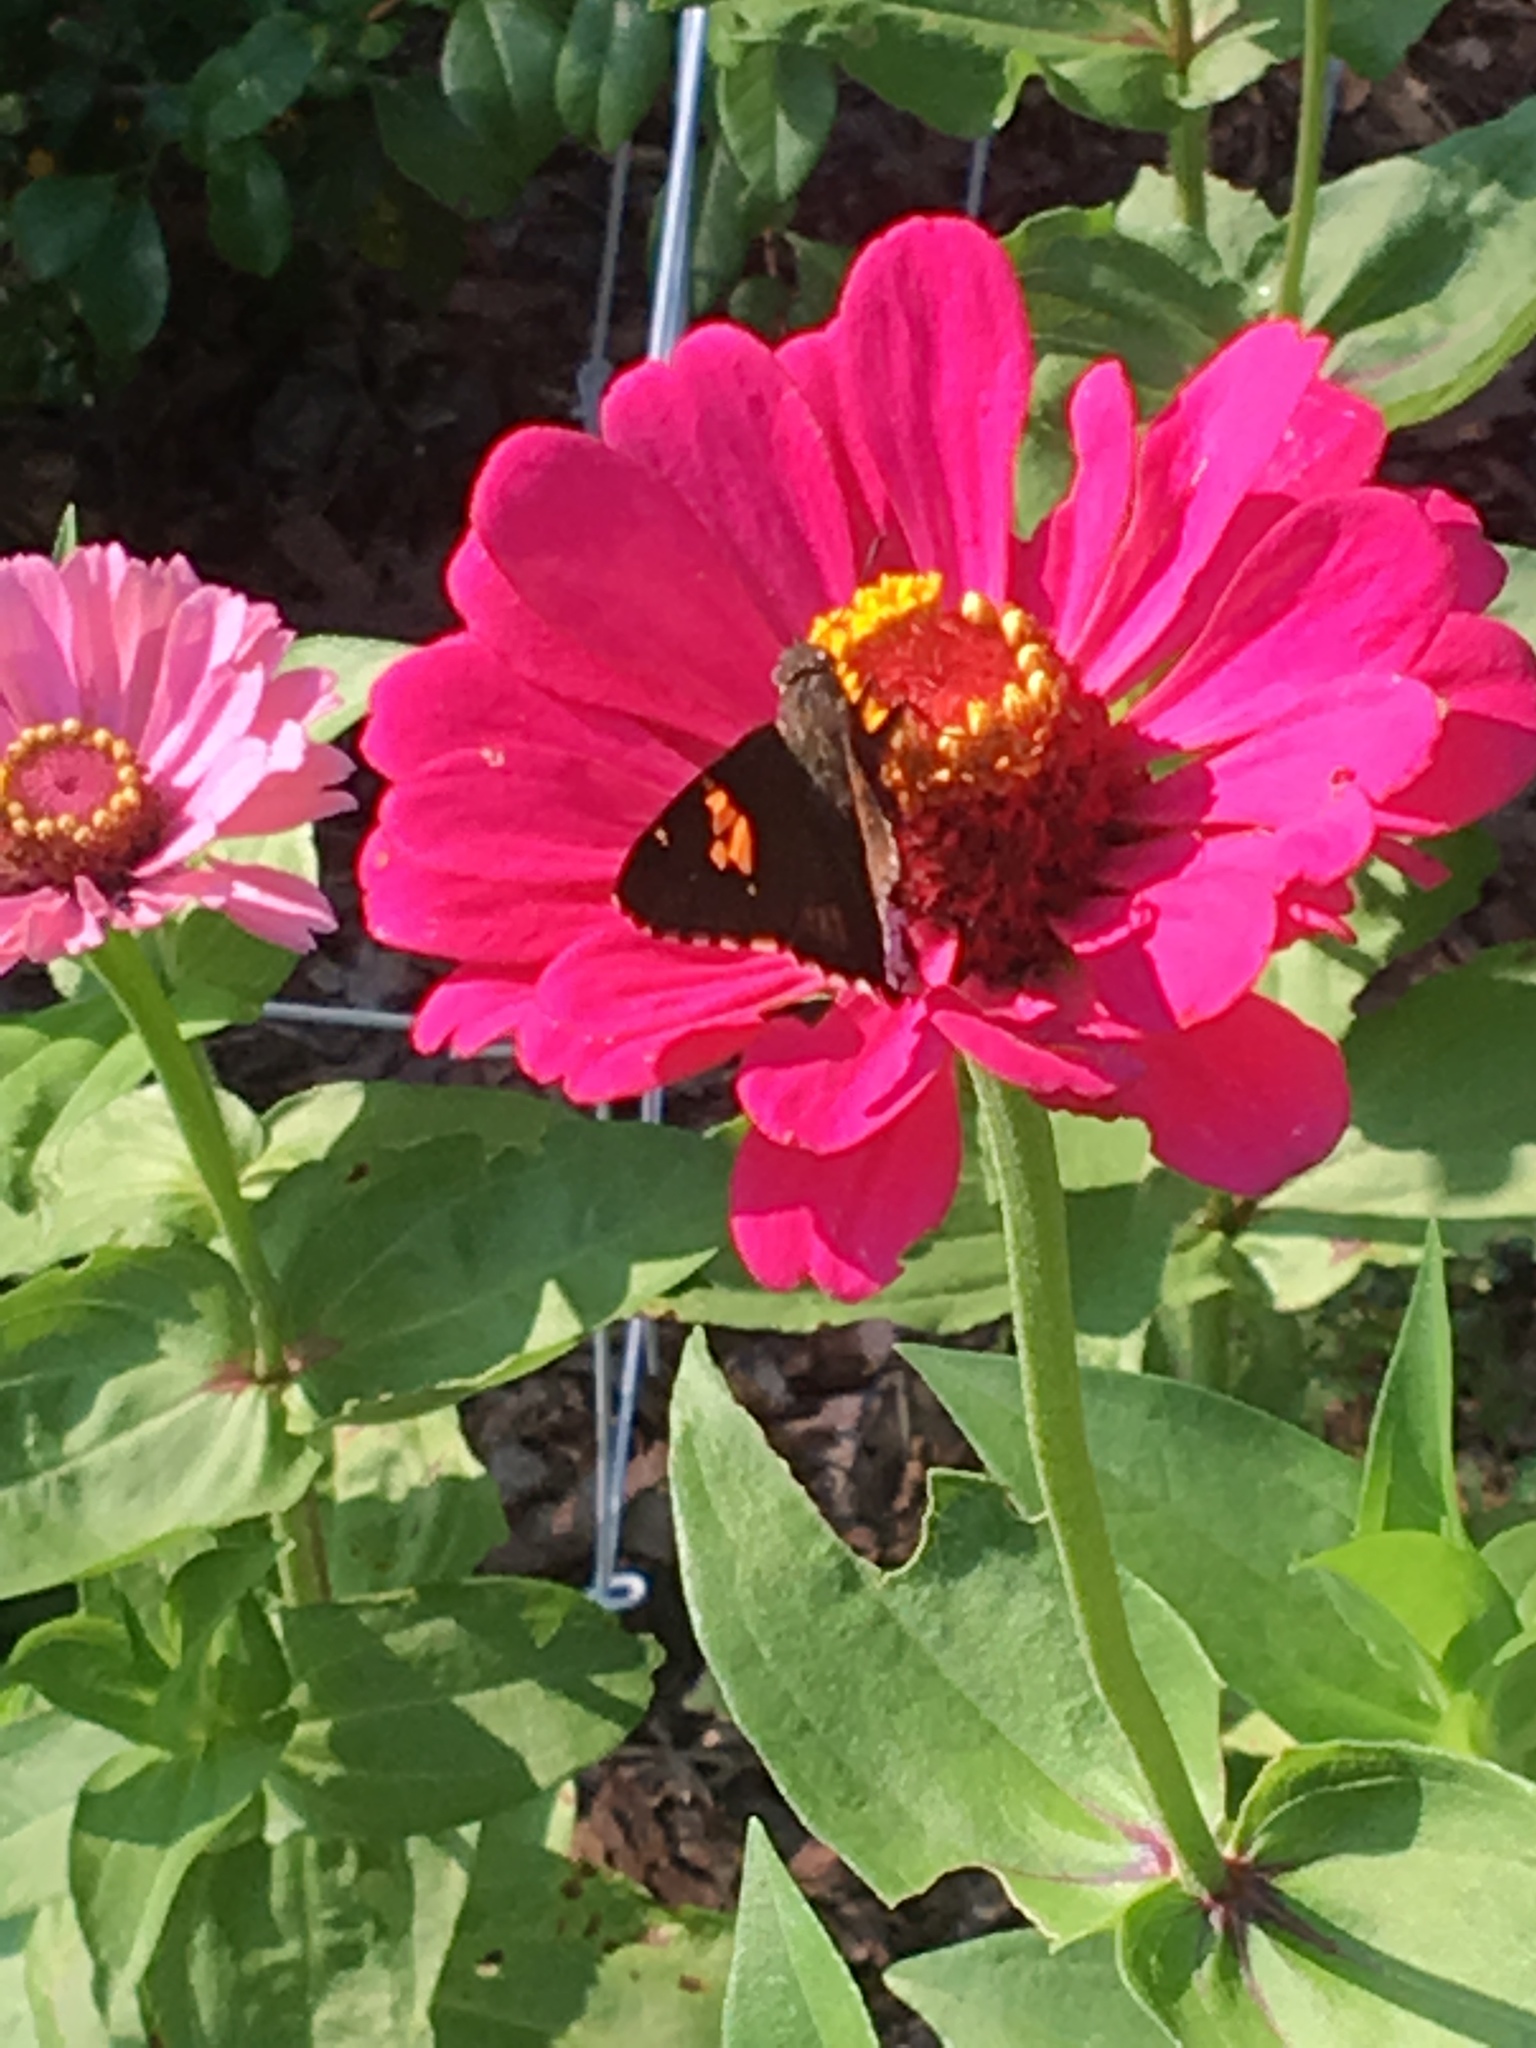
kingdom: Animalia
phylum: Arthropoda
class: Insecta
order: Lepidoptera
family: Hesperiidae
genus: Thorybes
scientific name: Thorybes lyciades
